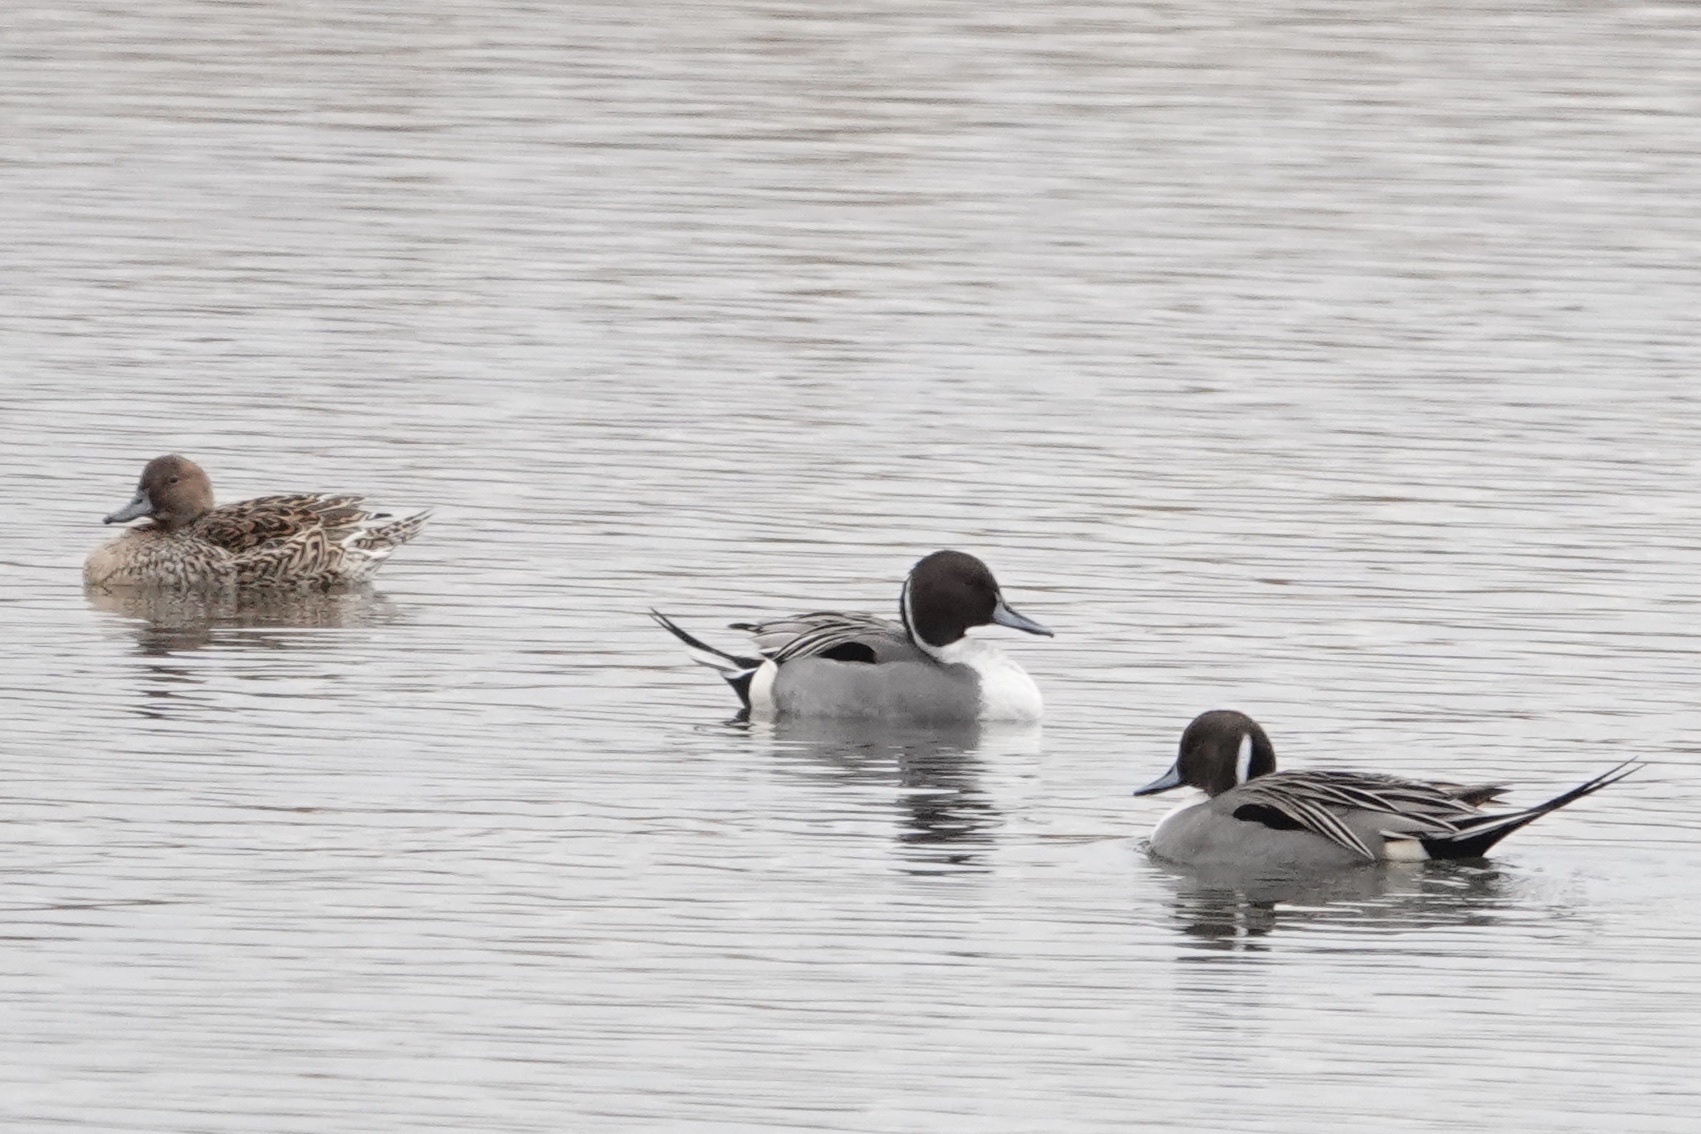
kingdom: Animalia
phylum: Chordata
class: Aves
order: Anseriformes
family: Anatidae
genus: Anas
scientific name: Anas acuta
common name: Northern pintail
